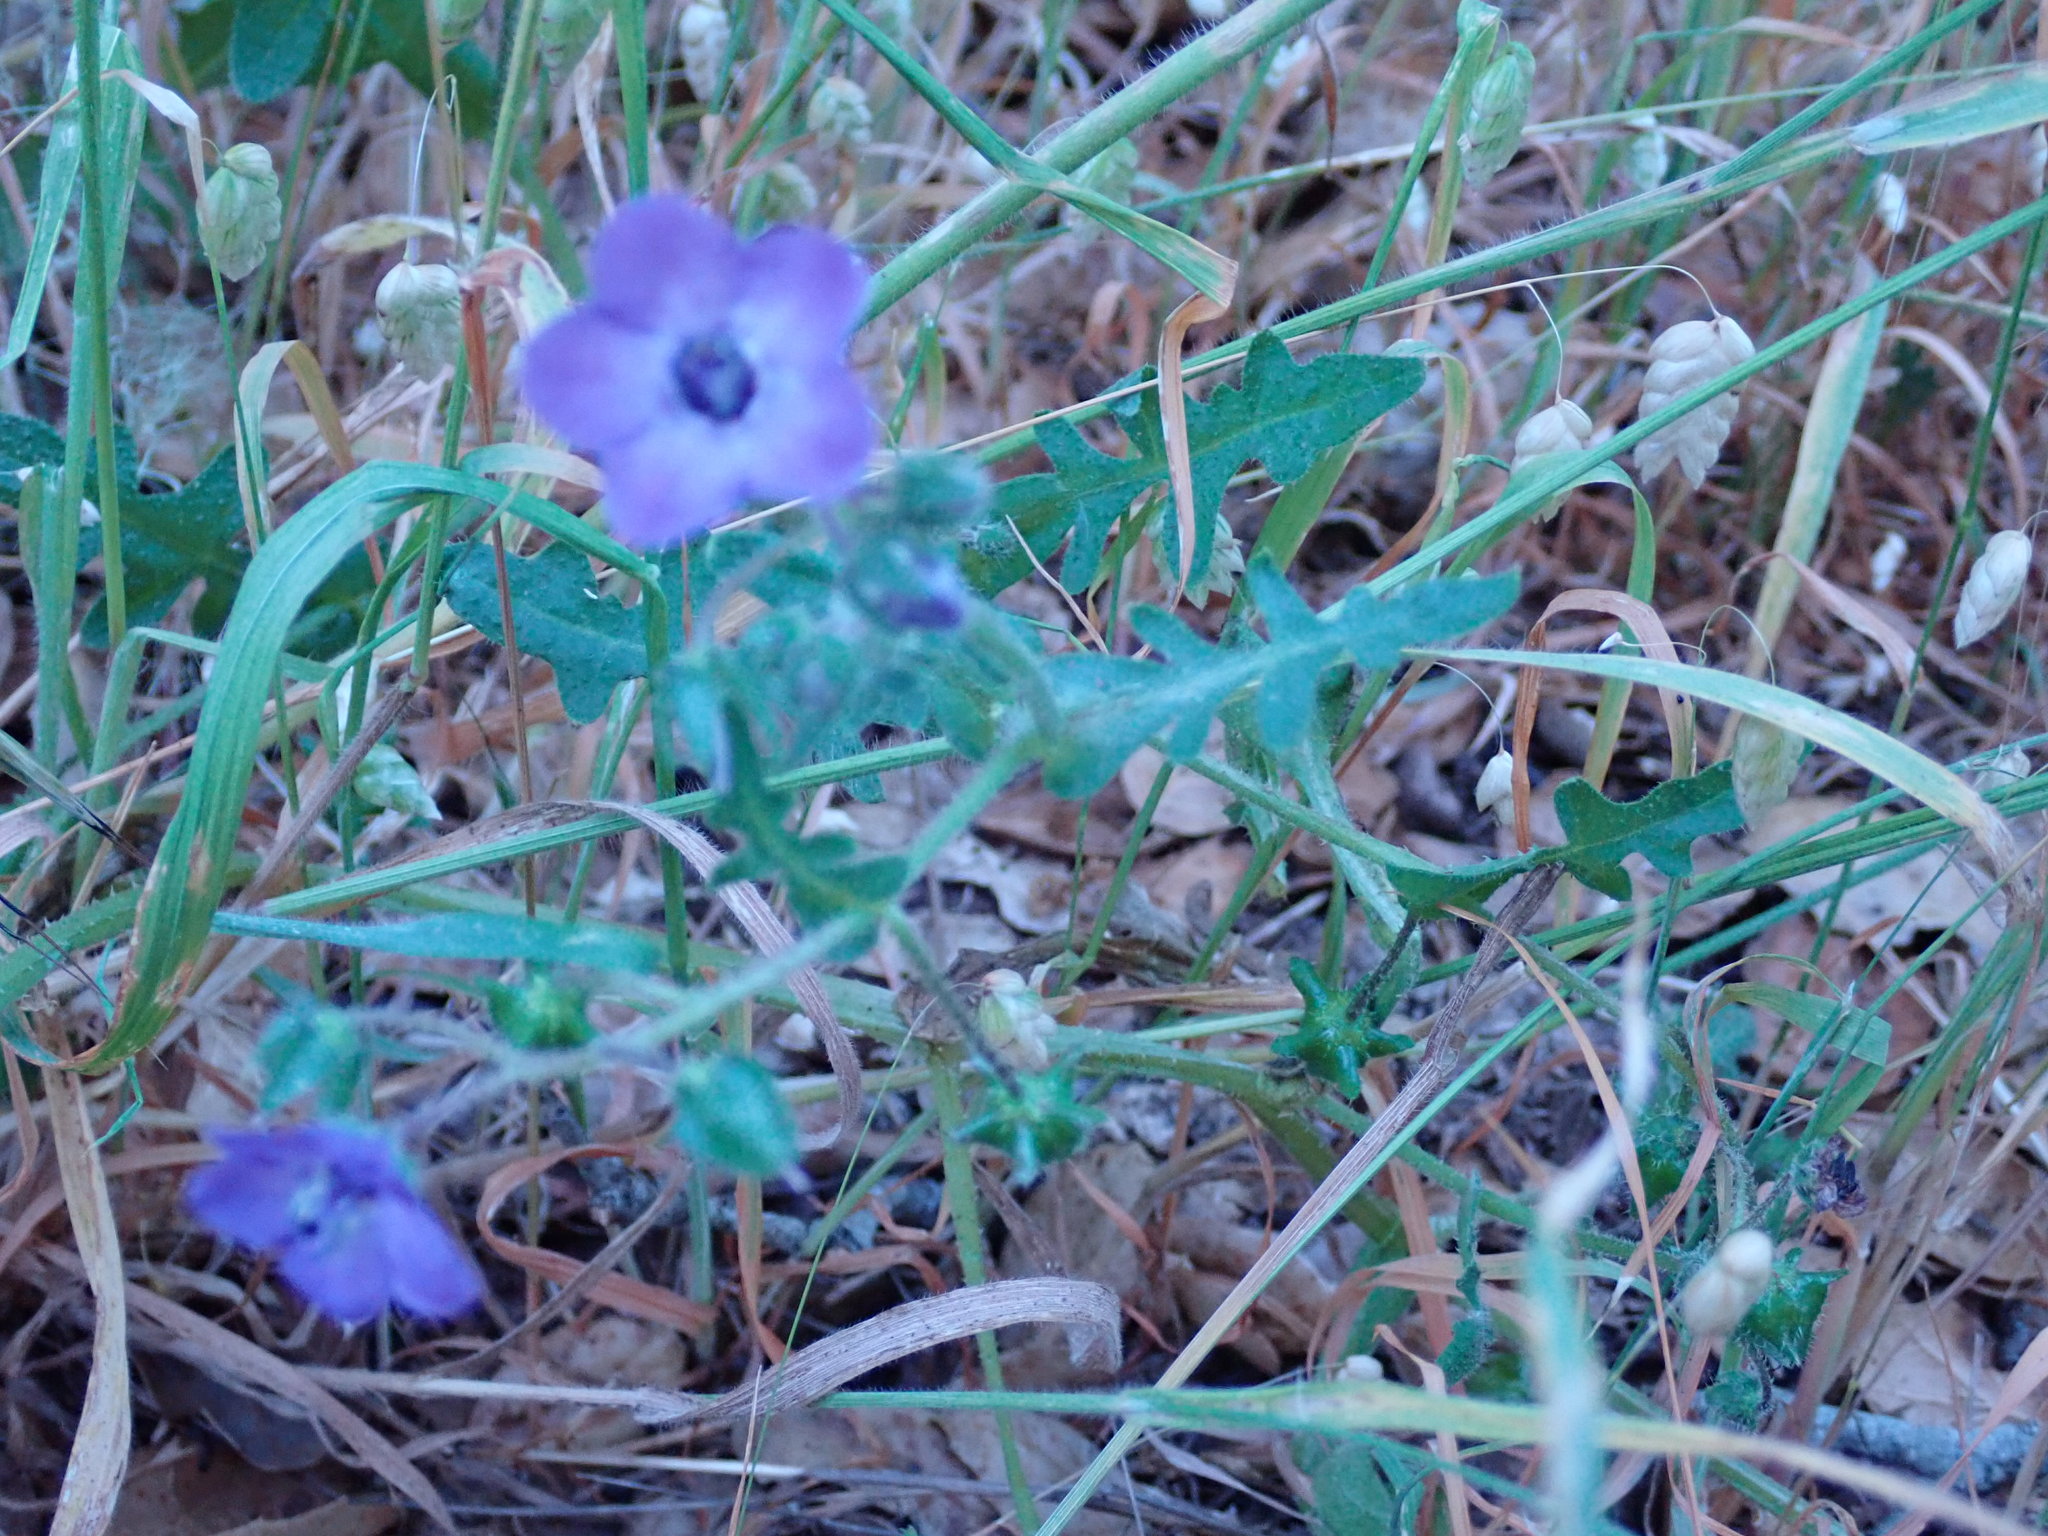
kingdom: Plantae
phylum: Tracheophyta
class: Magnoliopsida
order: Boraginales
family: Hydrophyllaceae
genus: Pholistoma
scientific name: Pholistoma auritum
